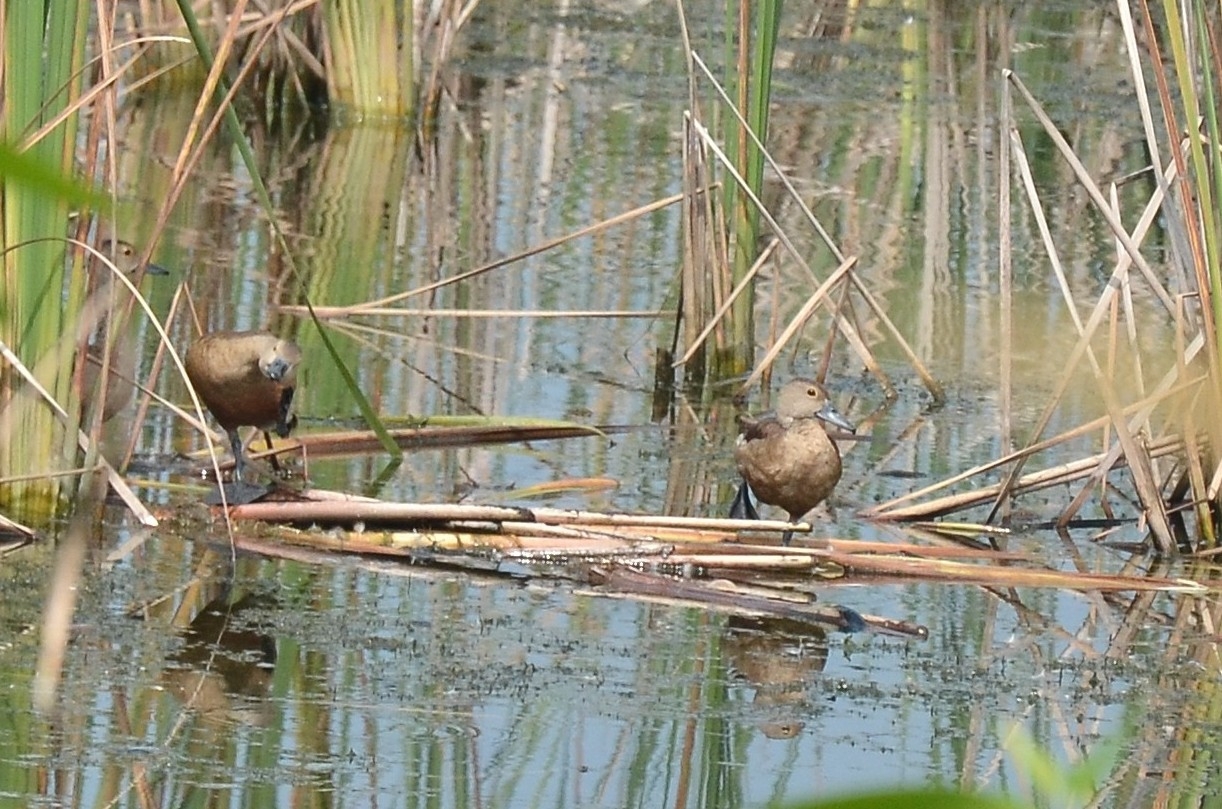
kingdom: Animalia
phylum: Chordata
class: Aves
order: Anseriformes
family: Anatidae
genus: Dendrocygna
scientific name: Dendrocygna javanica
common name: Lesser whistling-duck
